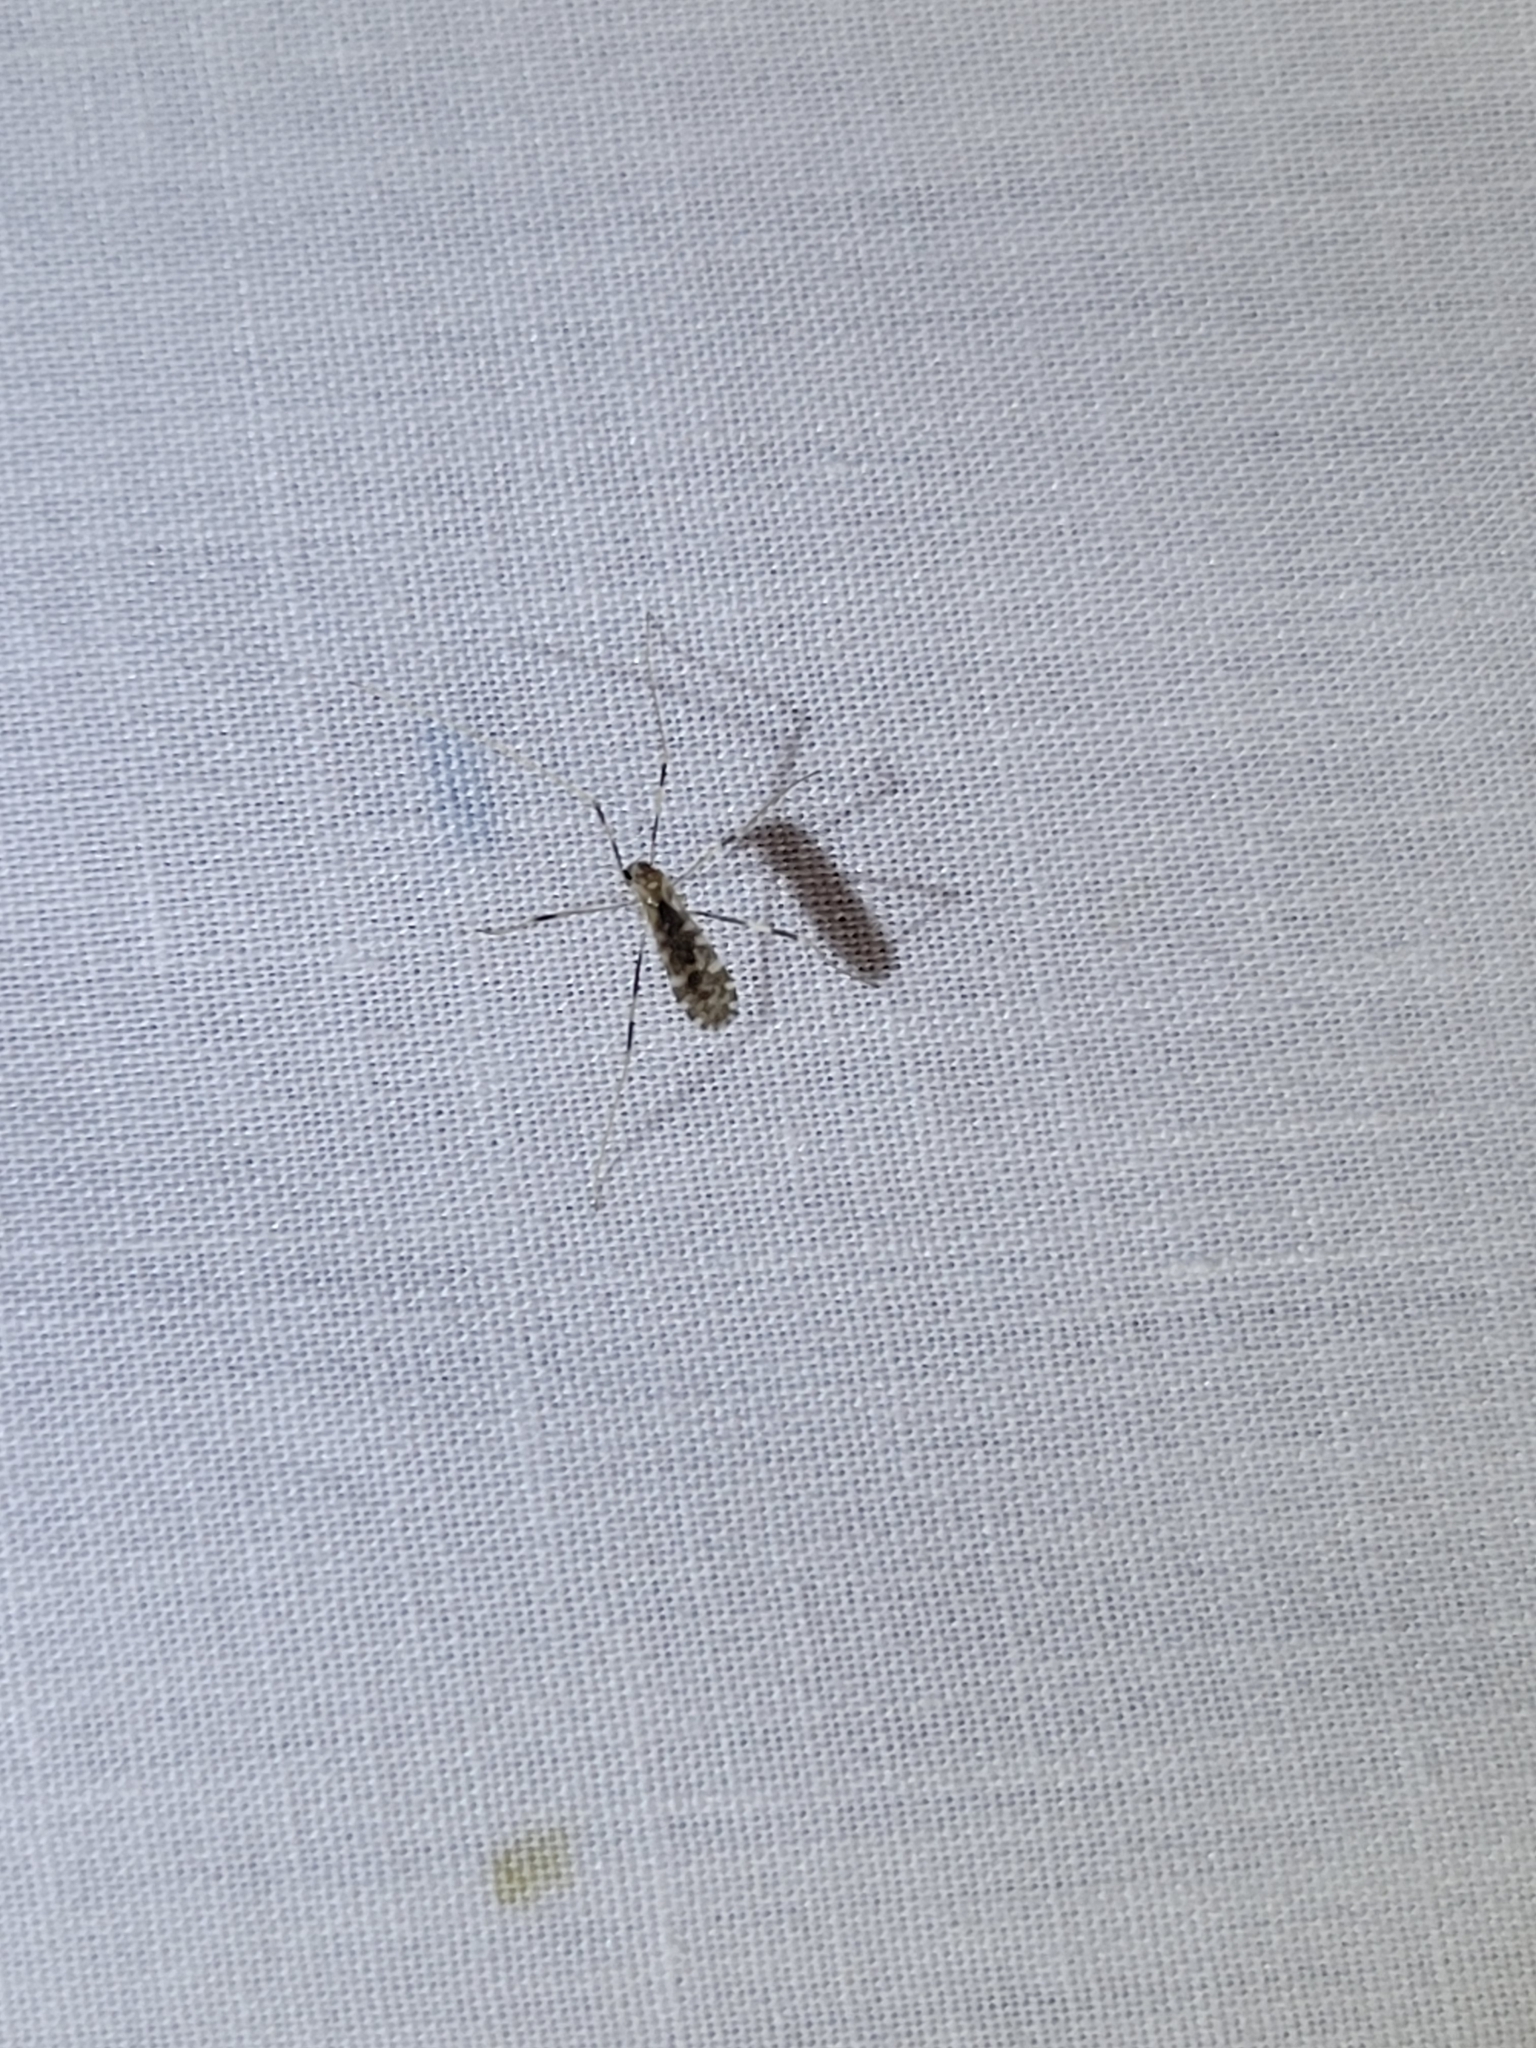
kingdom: Animalia
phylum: Arthropoda
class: Insecta
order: Diptera
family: Limoniidae
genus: Erioptera
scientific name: Erioptera caliptera
